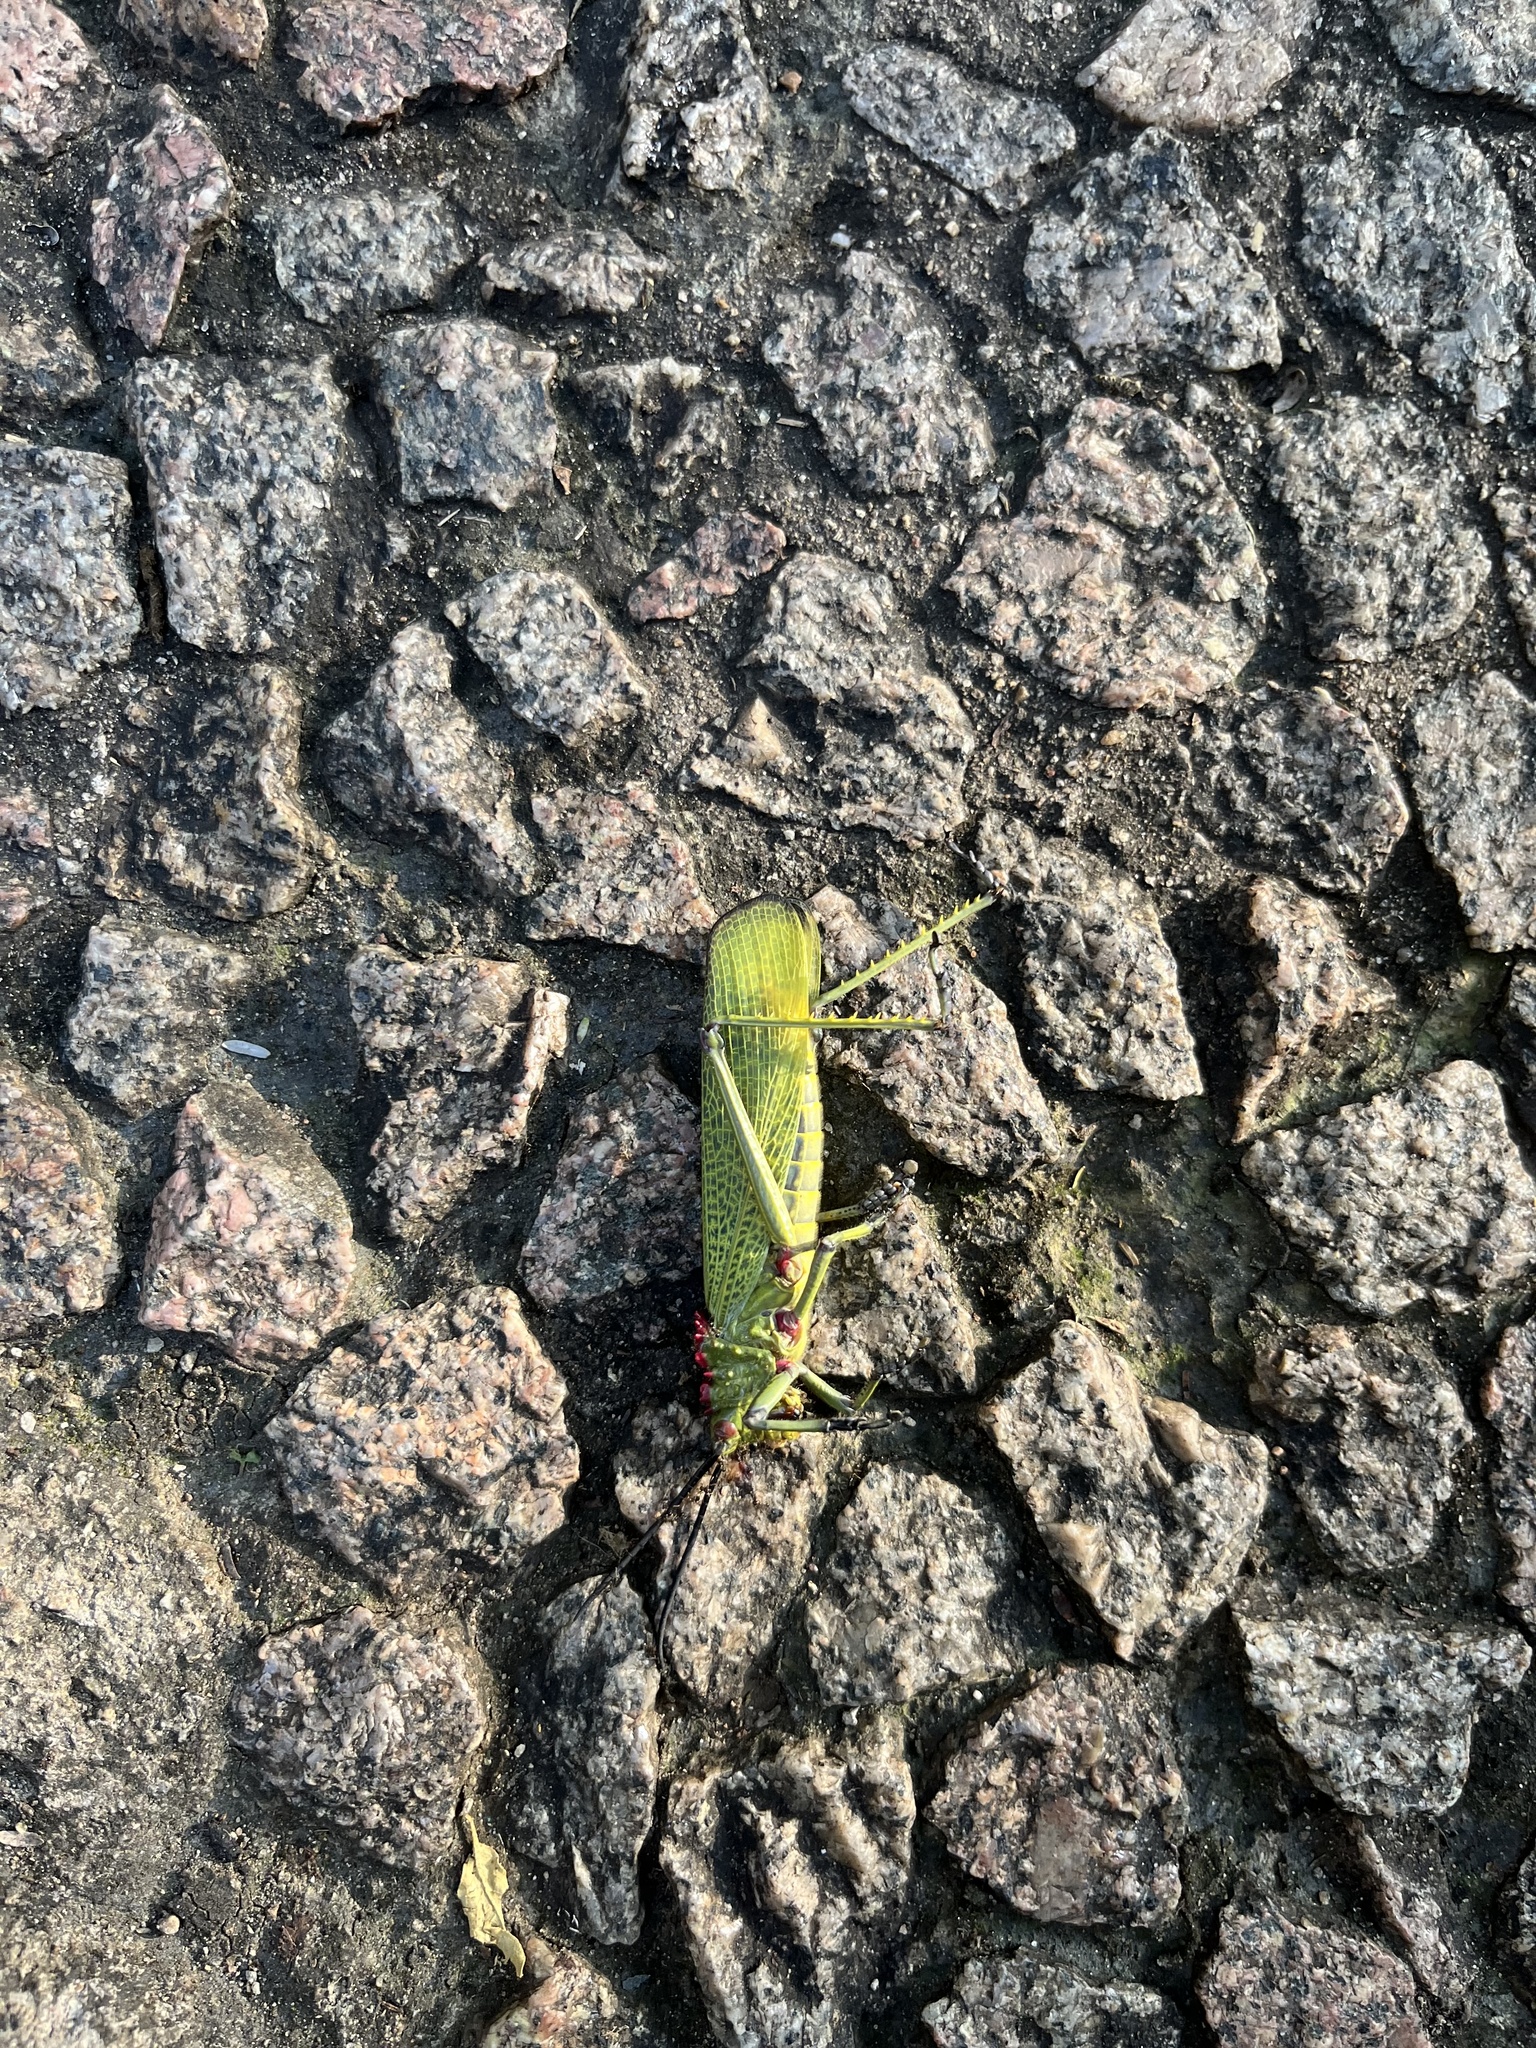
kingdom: Animalia
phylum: Arthropoda
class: Insecta
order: Orthoptera
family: Pyrgomorphidae
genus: Phymateus
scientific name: Phymateus viridipes
